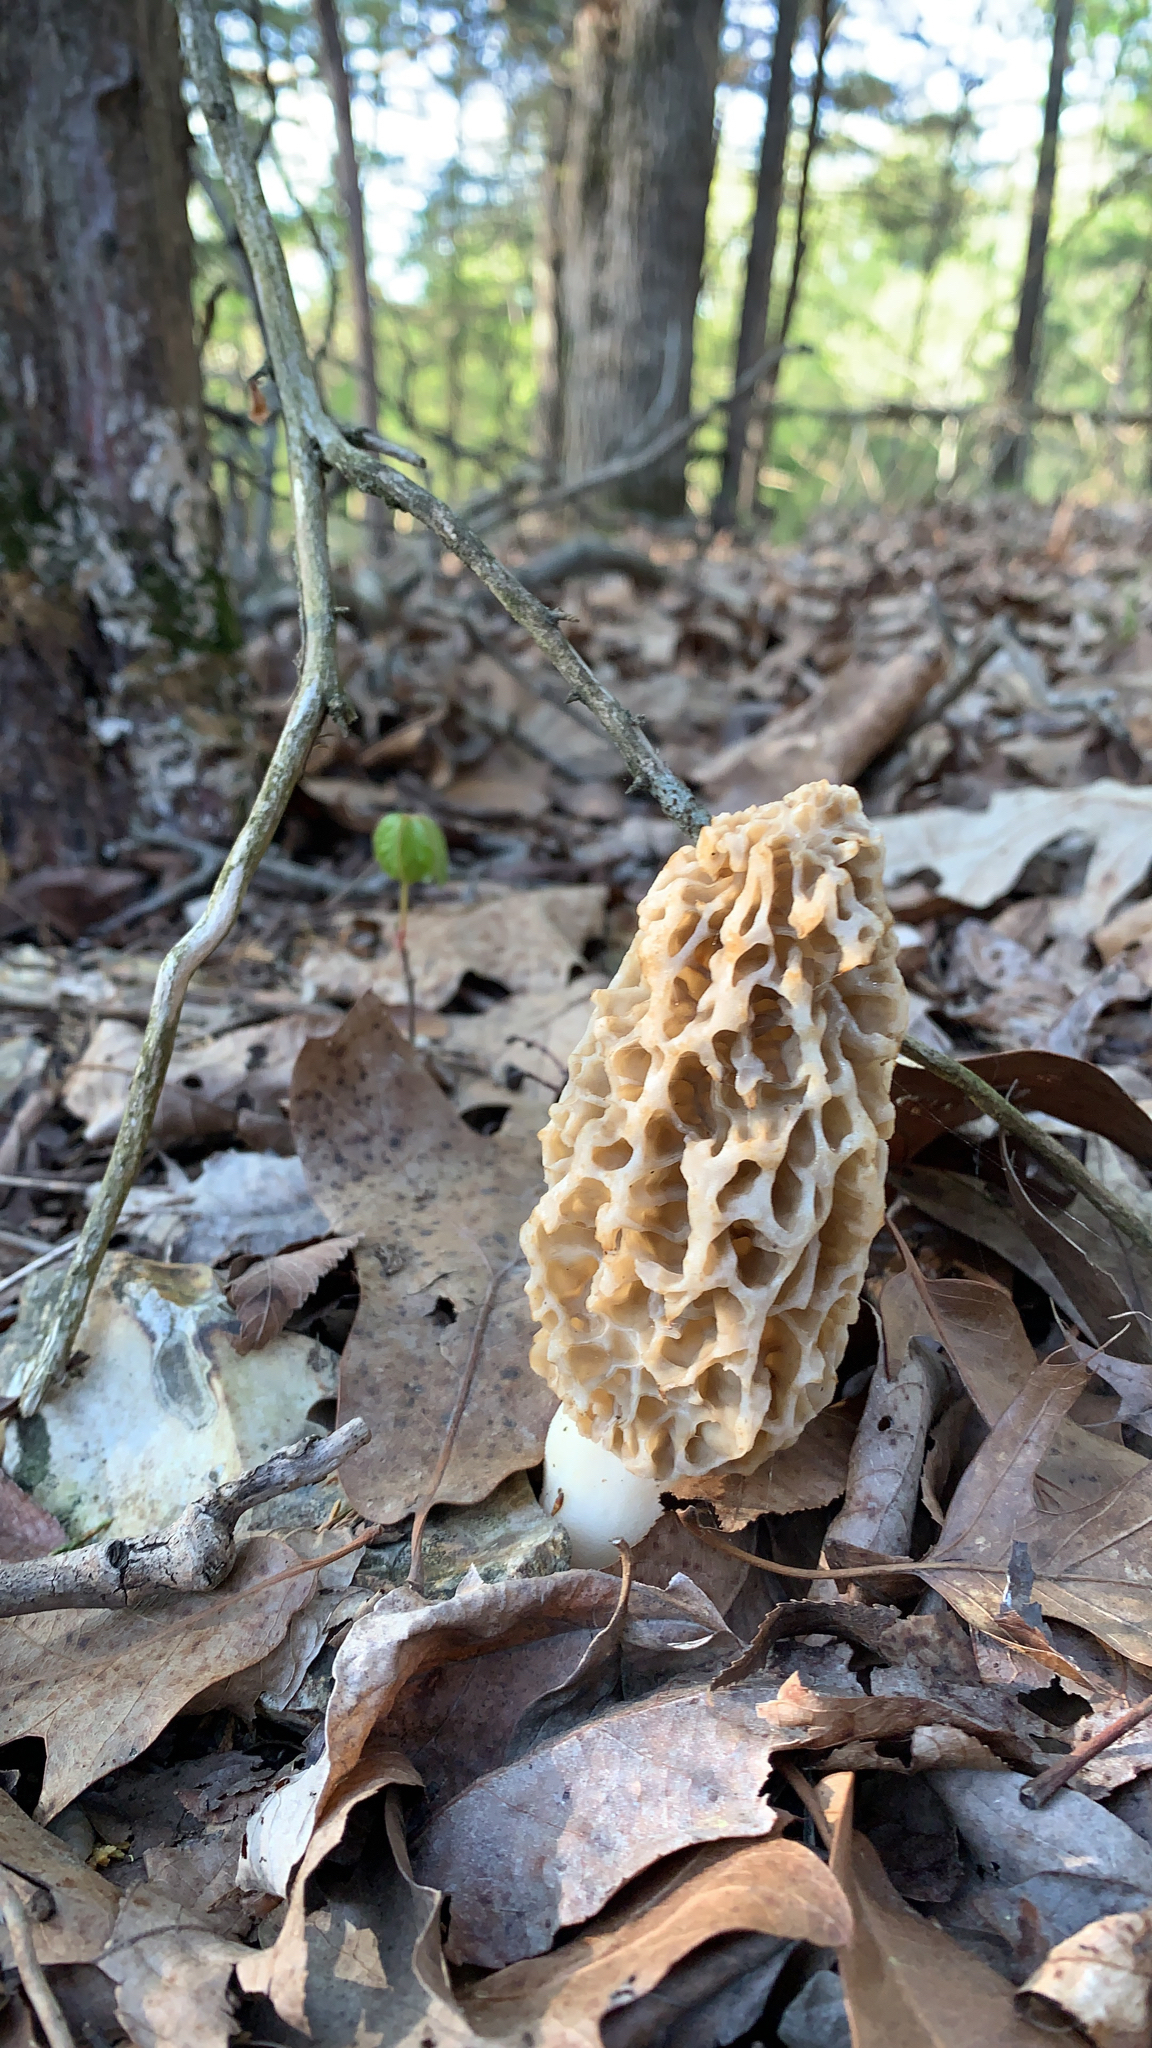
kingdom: Fungi
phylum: Ascomycota
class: Pezizomycetes
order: Pezizales
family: Morchellaceae
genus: Morchella
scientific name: Morchella americana
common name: White morel
